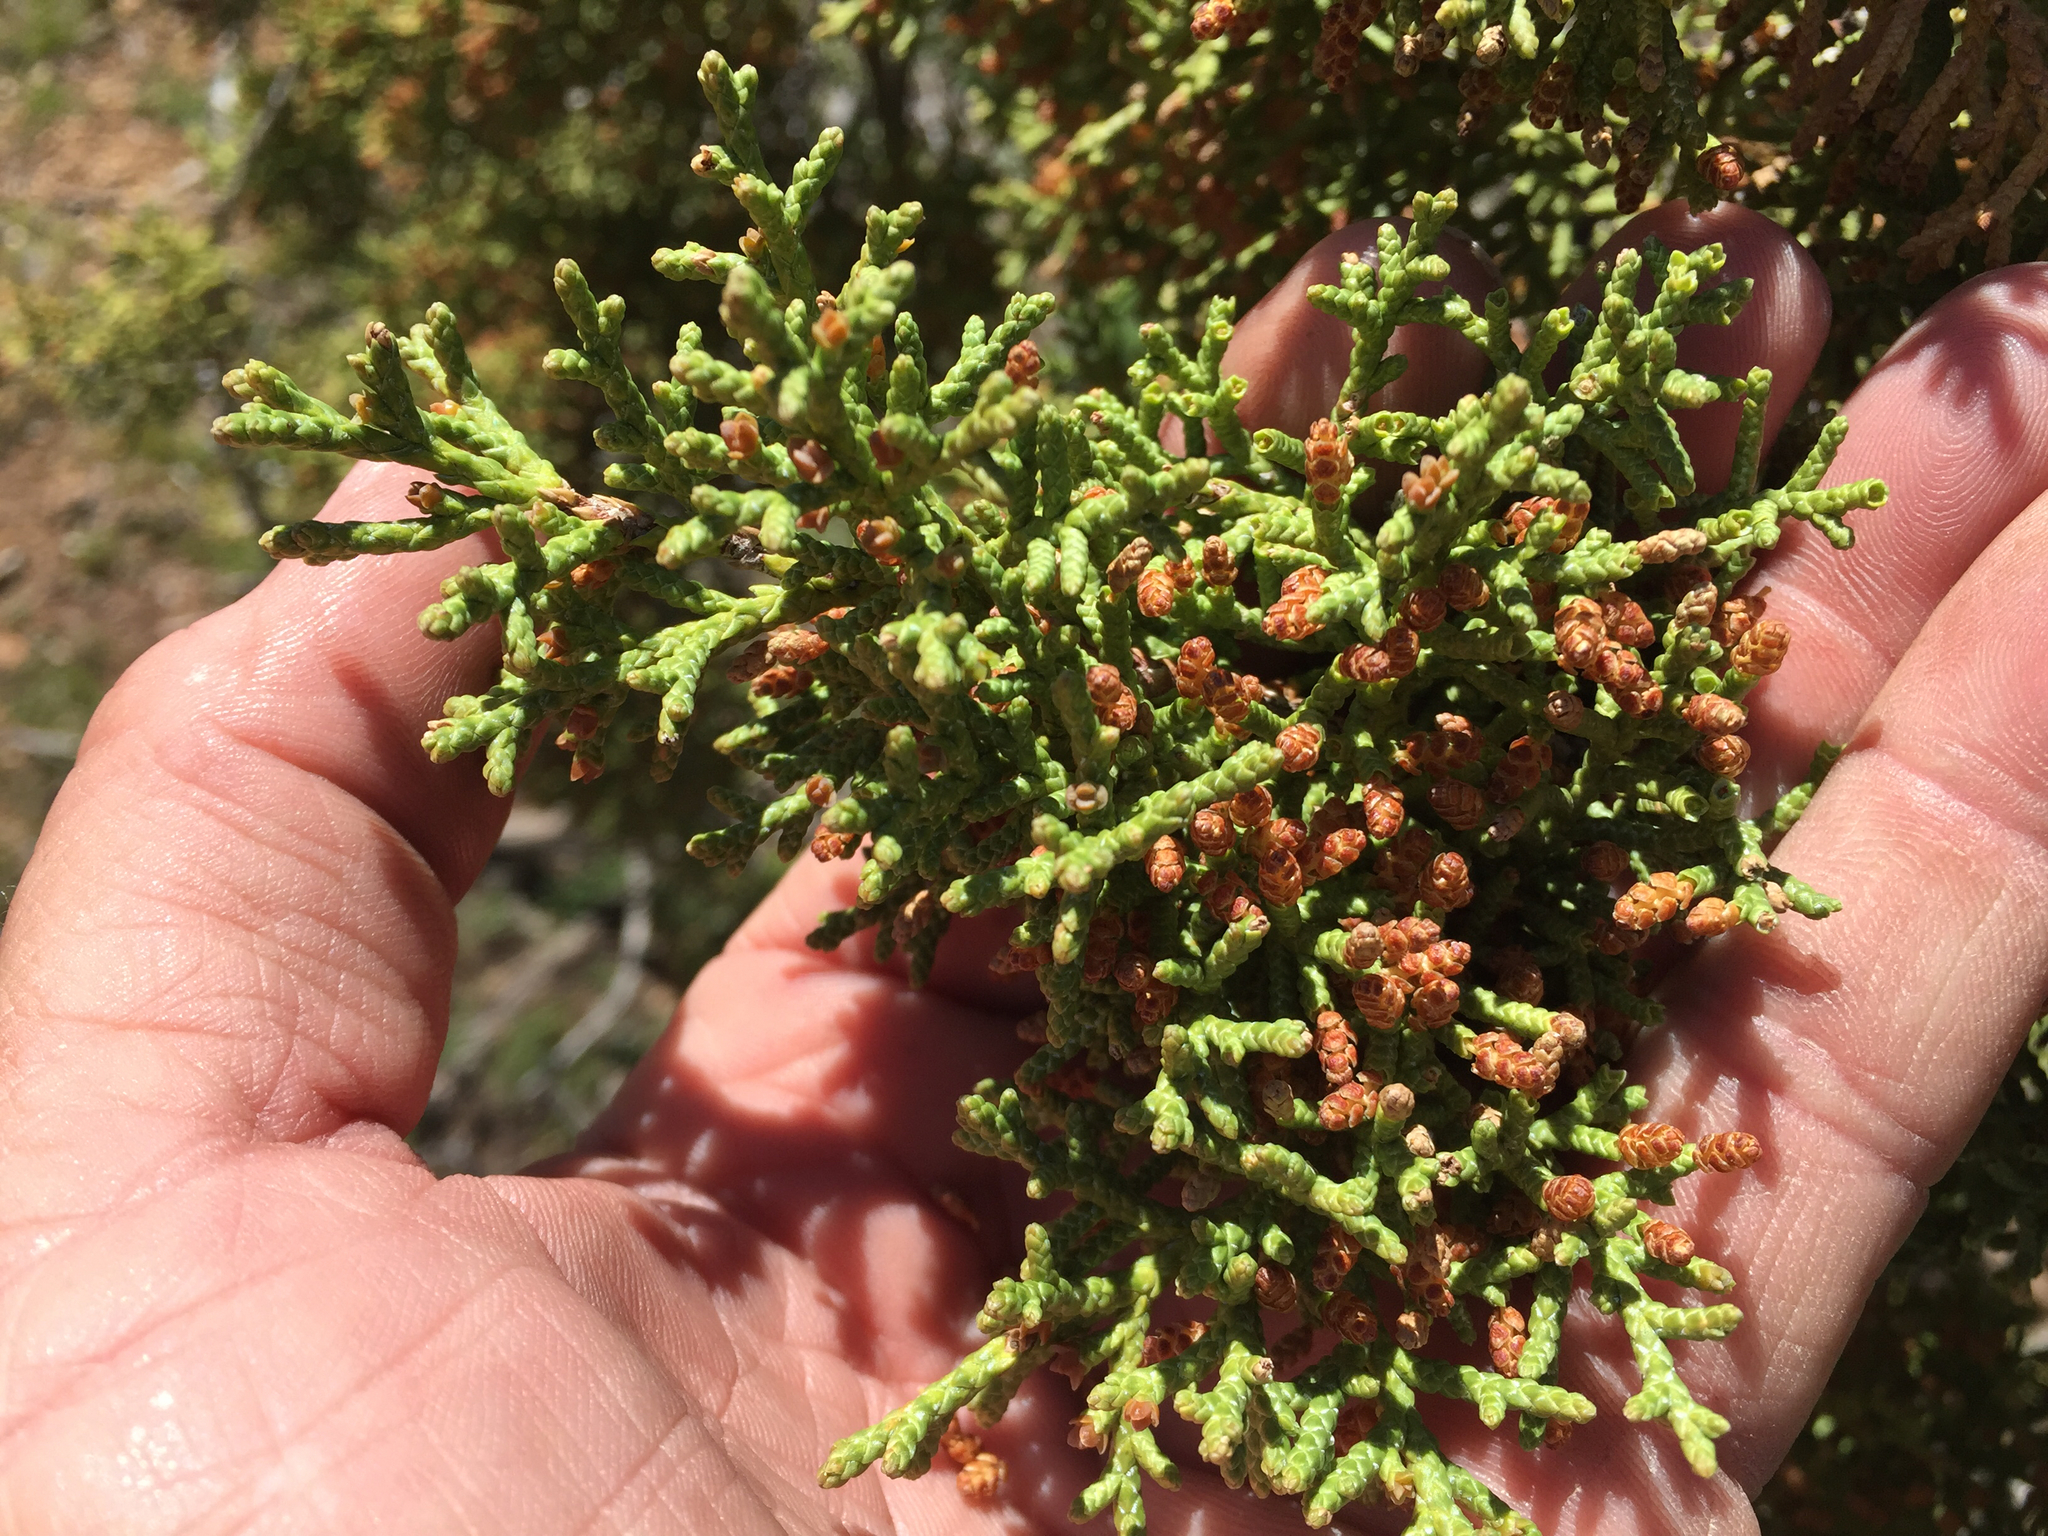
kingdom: Plantae
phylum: Tracheophyta
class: Pinopsida
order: Pinales
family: Cupressaceae
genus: Juniperus
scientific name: Juniperus osteosperma
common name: Utah juniper
